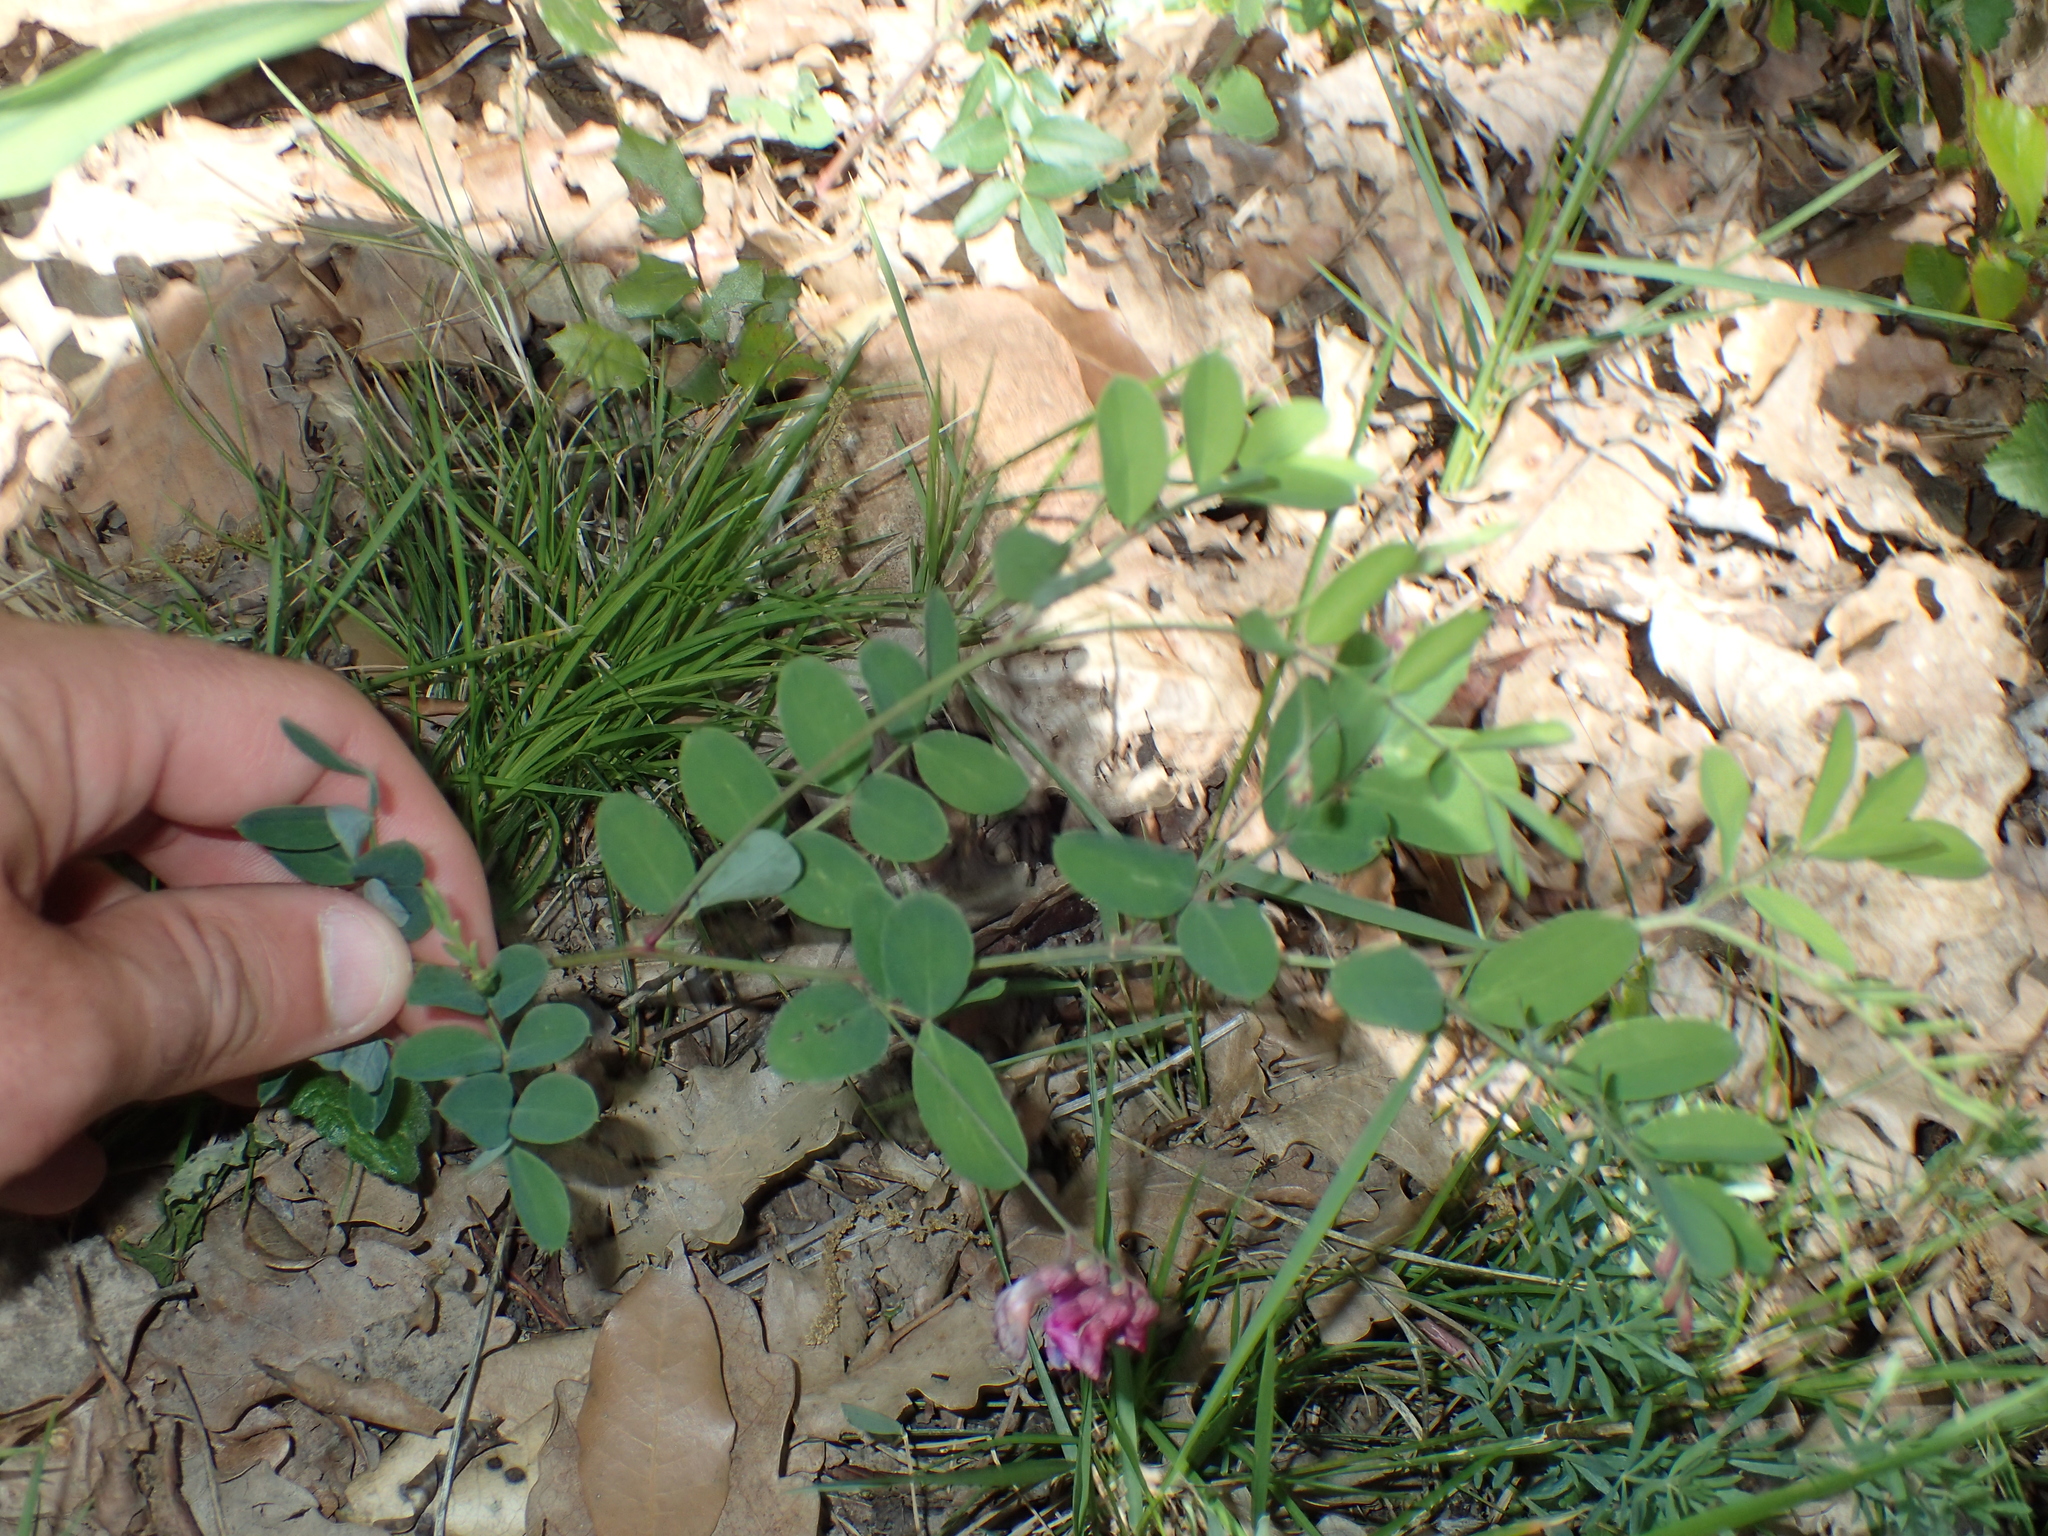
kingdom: Plantae
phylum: Tracheophyta
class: Magnoliopsida
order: Fabales
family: Fabaceae
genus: Lathyrus
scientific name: Lathyrus niger
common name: Black pea
